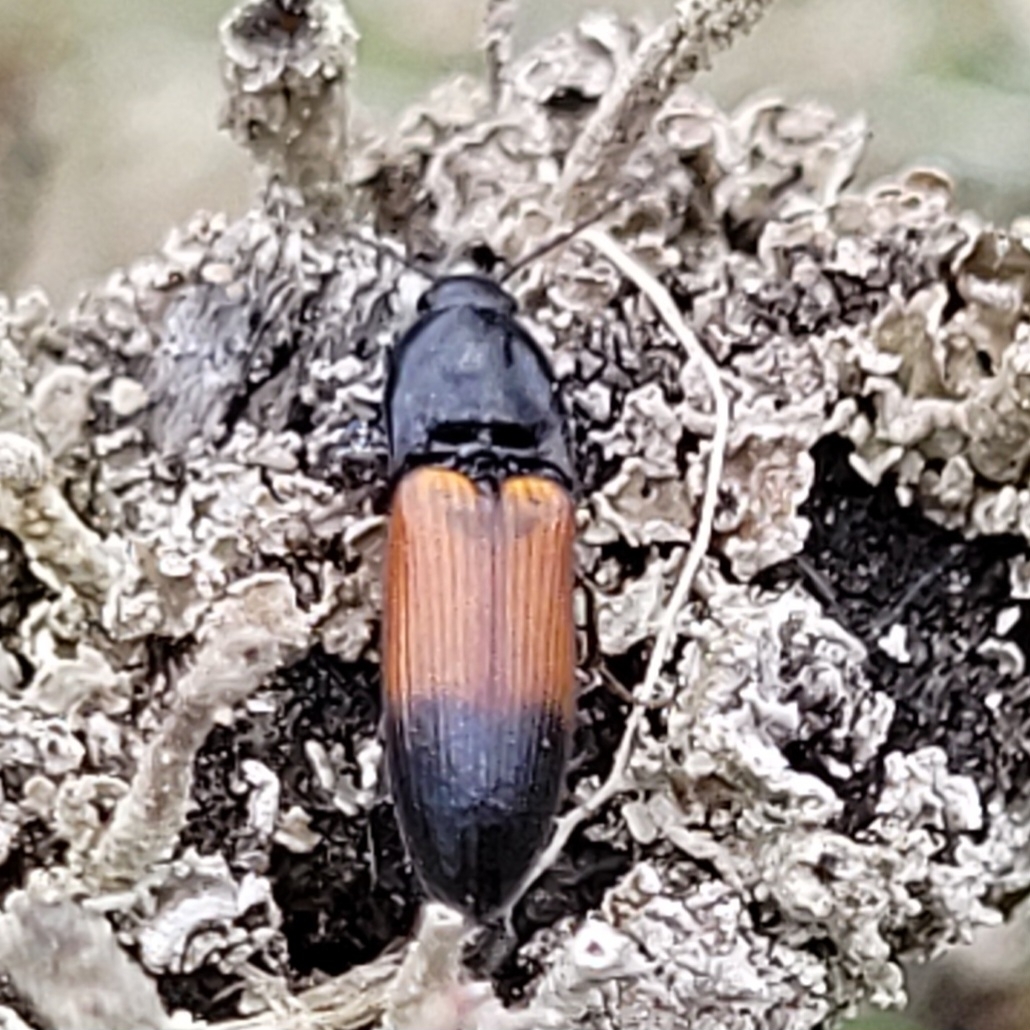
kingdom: Animalia
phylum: Arthropoda
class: Insecta
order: Coleoptera
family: Elateridae
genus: Ampedus
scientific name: Ampedus balteatus
